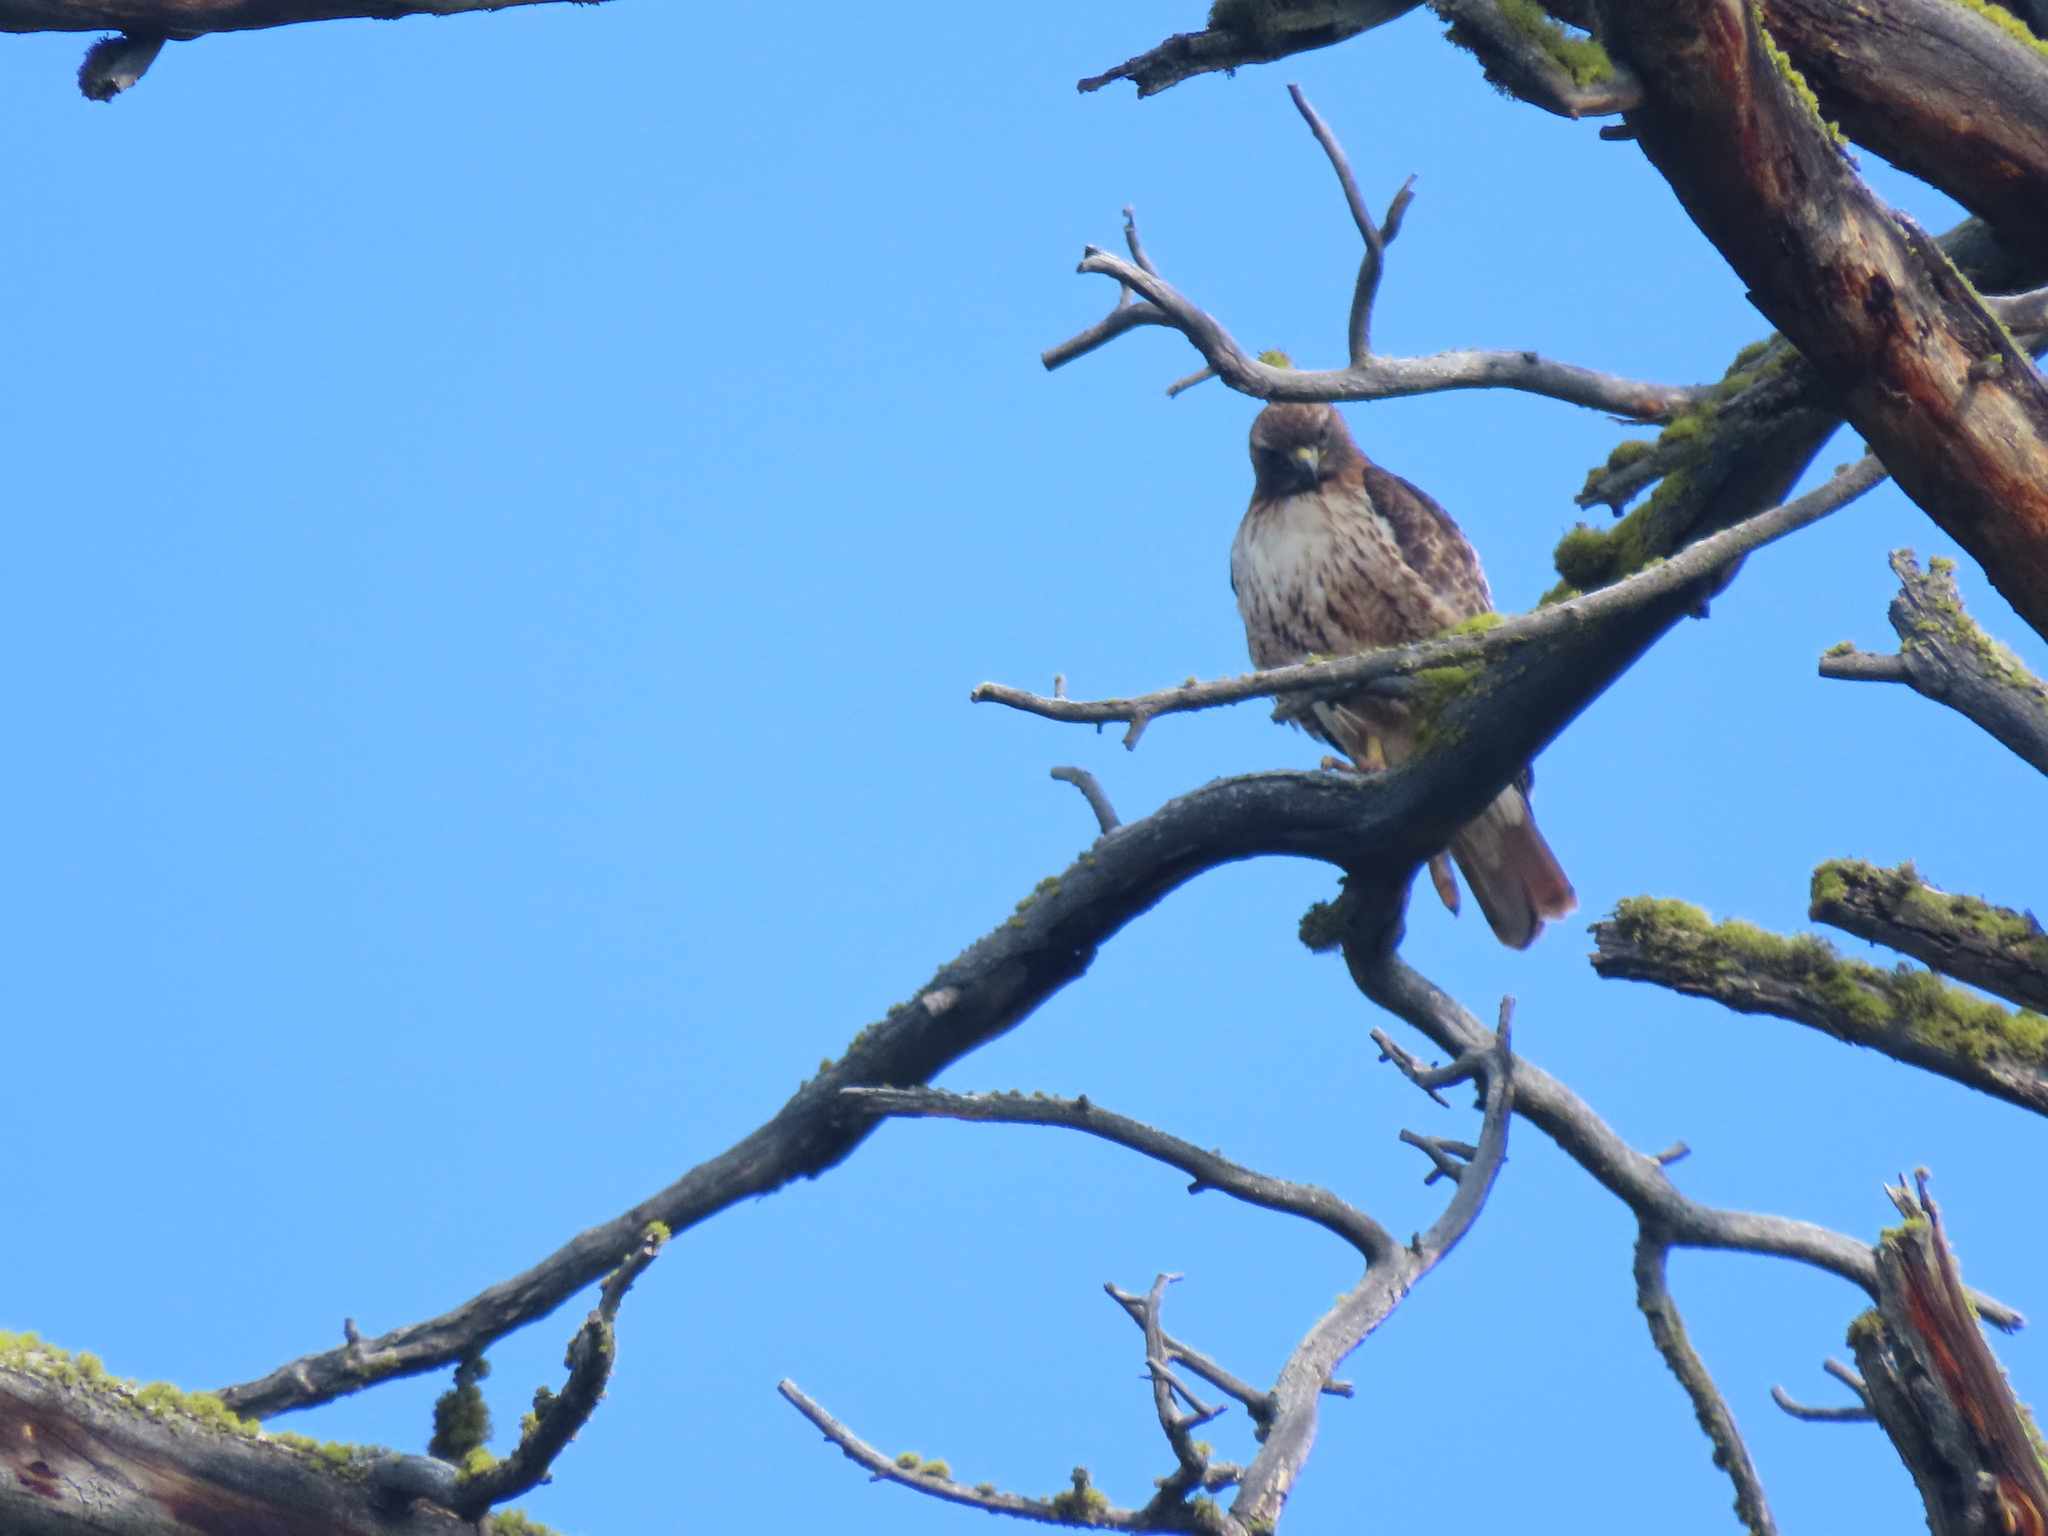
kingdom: Animalia
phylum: Chordata
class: Aves
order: Accipitriformes
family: Accipitridae
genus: Buteo
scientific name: Buteo jamaicensis
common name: Red-tailed hawk
